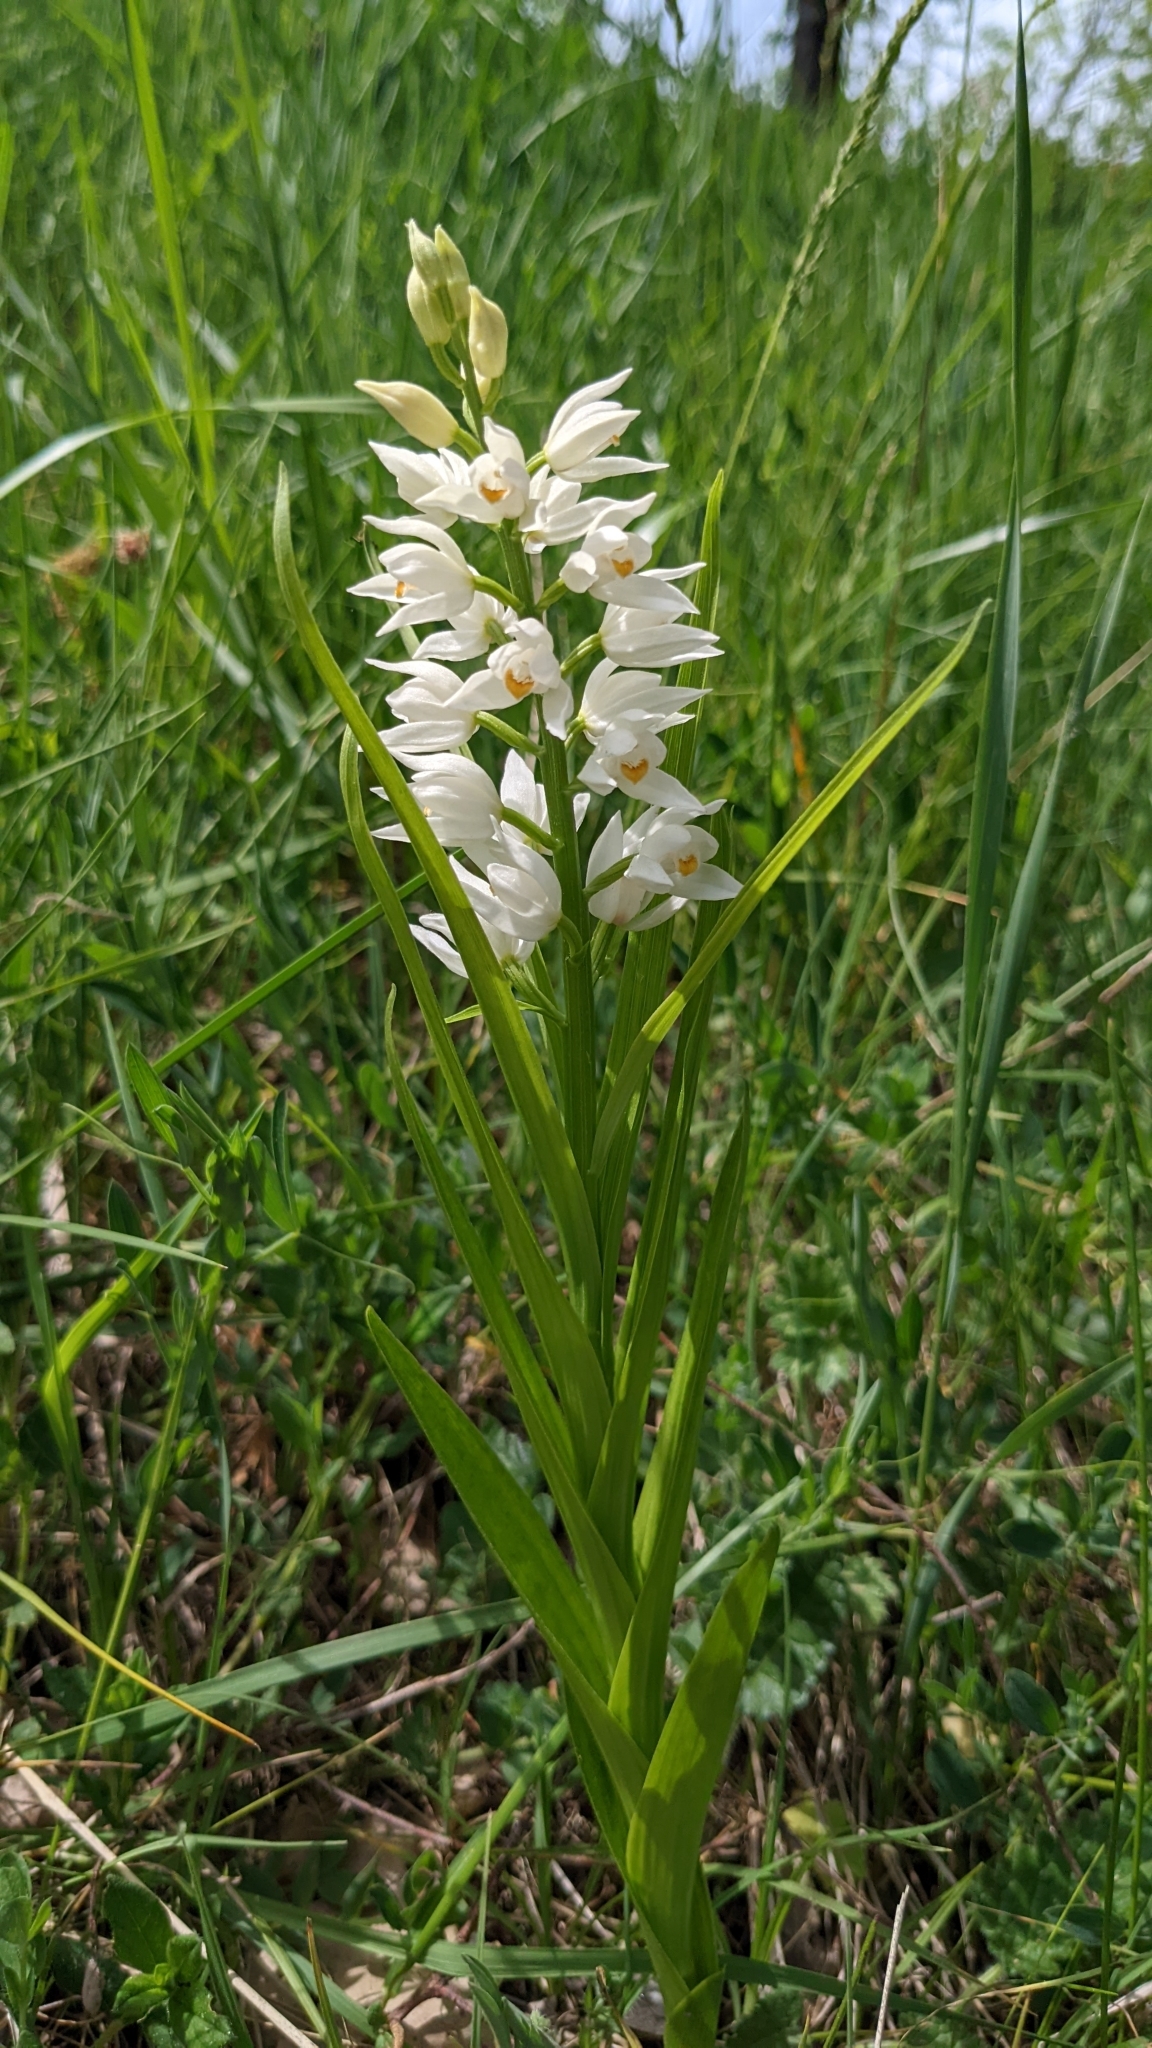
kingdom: Plantae
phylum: Tracheophyta
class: Liliopsida
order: Asparagales
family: Orchidaceae
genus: Cephalanthera
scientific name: Cephalanthera longifolia
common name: Narrow-leaved helleborine
